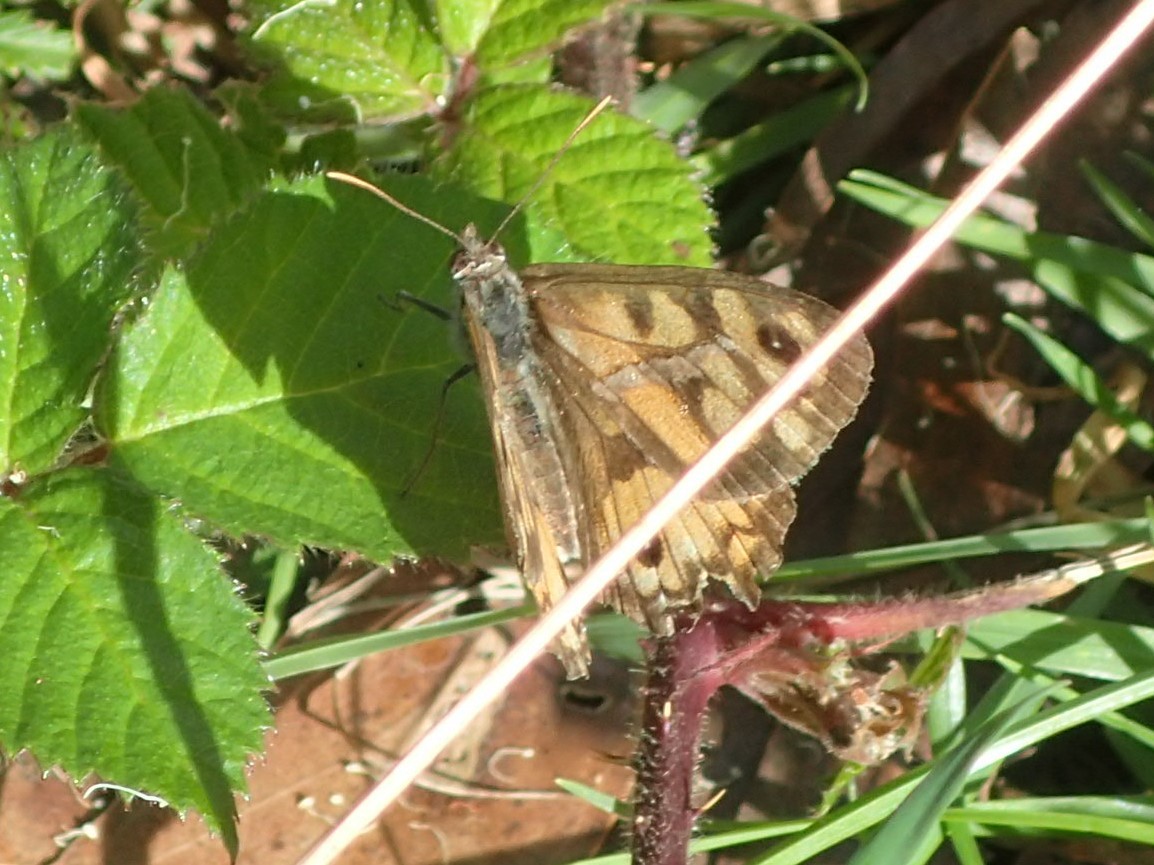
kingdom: Animalia
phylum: Arthropoda
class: Insecta
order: Lepidoptera
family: Nymphalidae
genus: Geitoneura
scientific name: Geitoneura klugii
